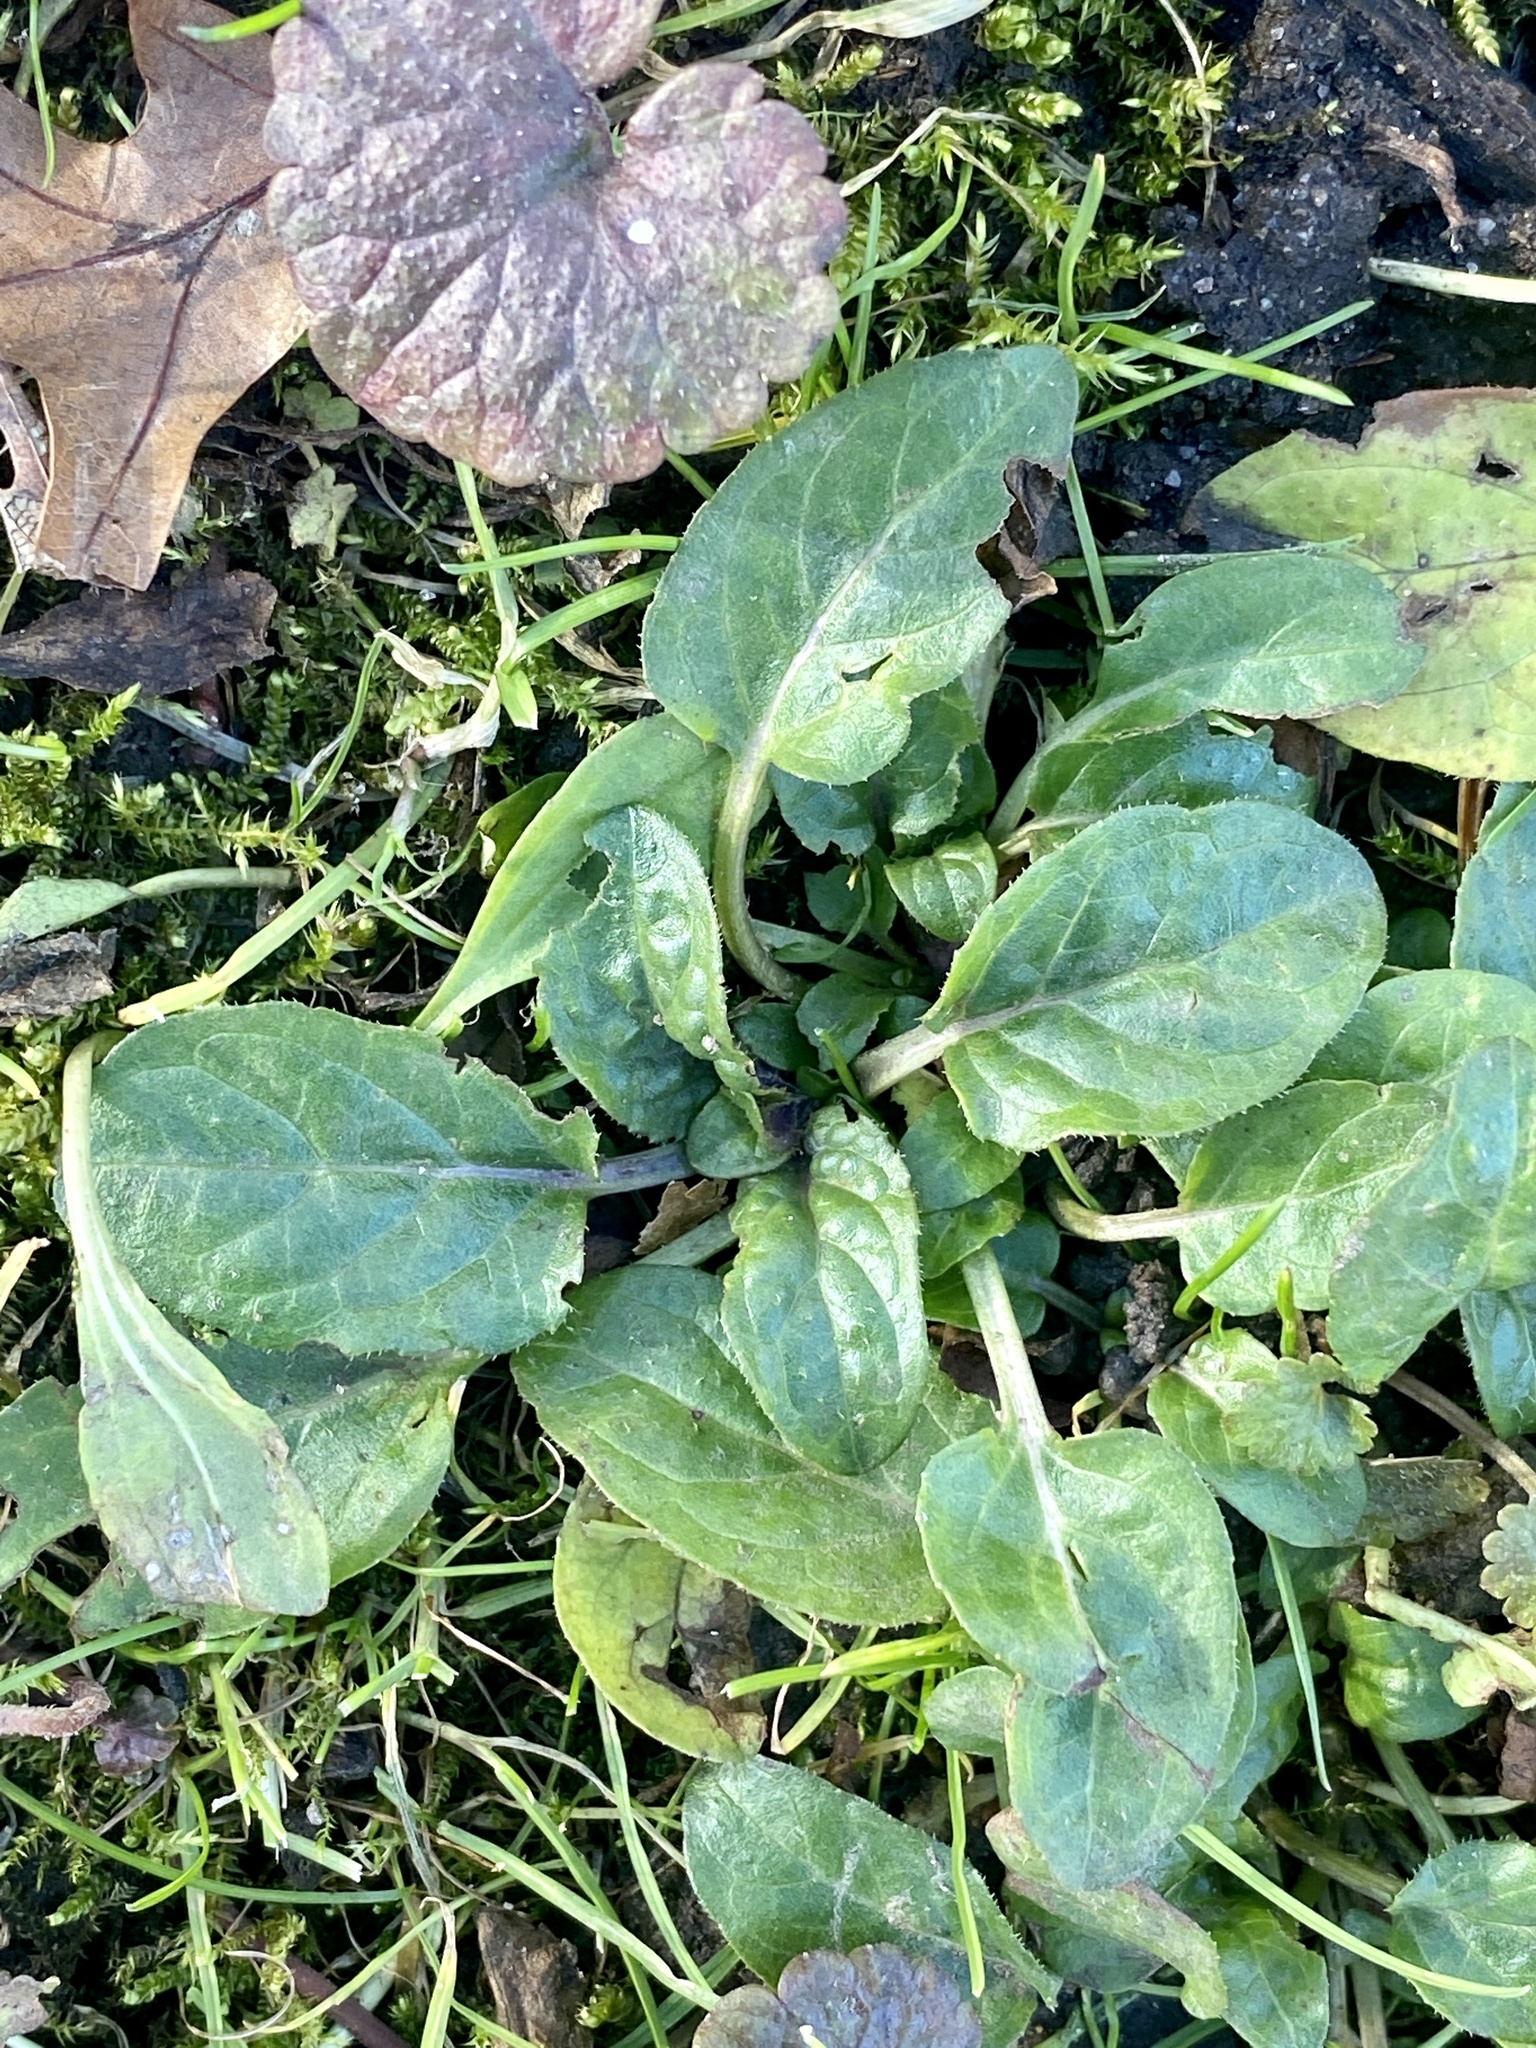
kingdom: Plantae
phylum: Tracheophyta
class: Magnoliopsida
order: Lamiales
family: Lamiaceae
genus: Prunella
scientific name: Prunella vulgaris
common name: Heal-all
